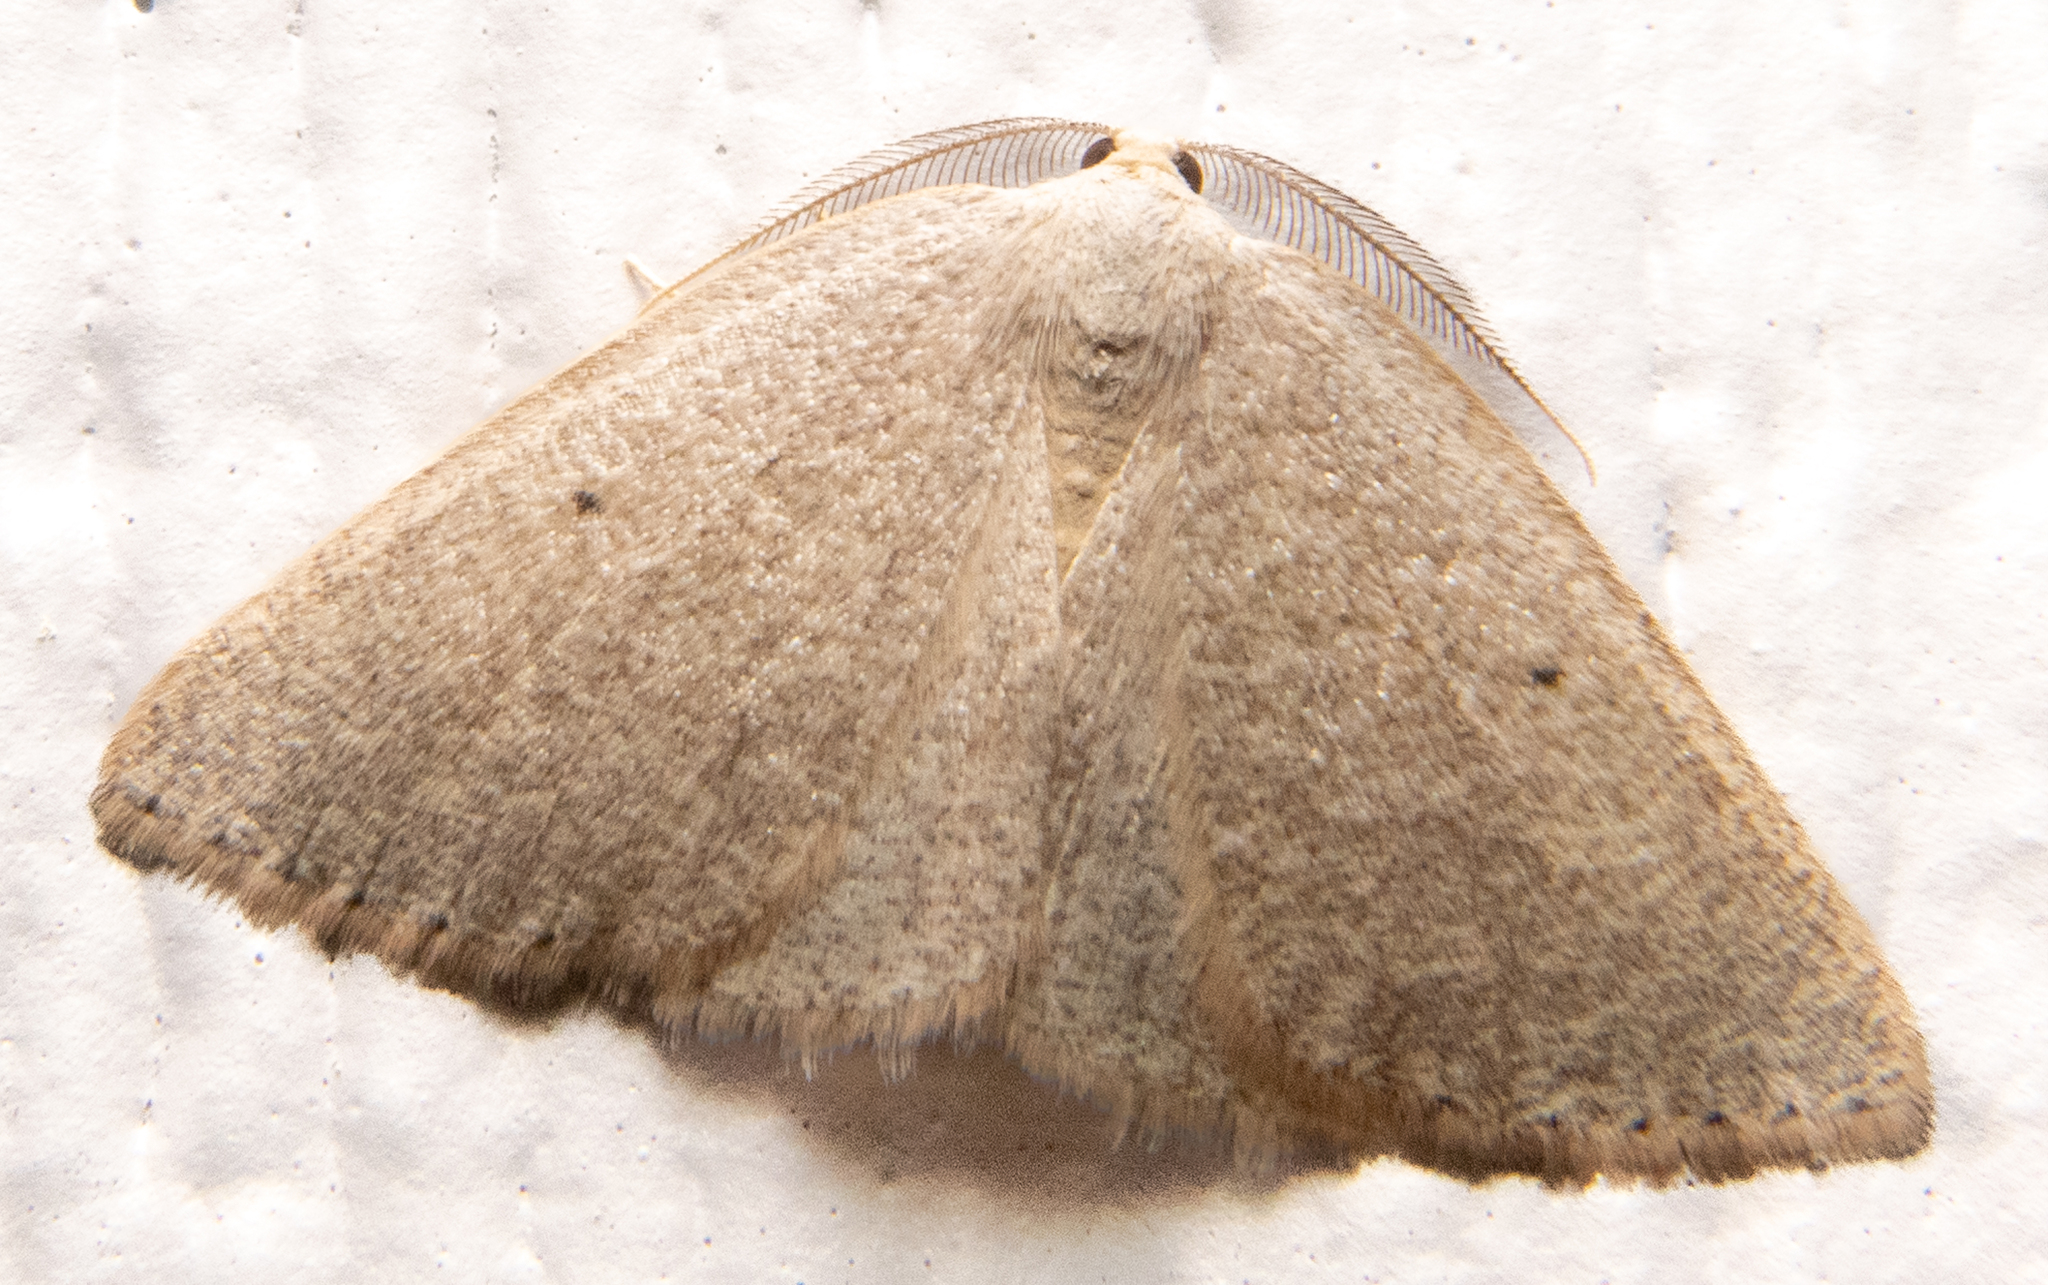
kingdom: Animalia
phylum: Arthropoda
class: Insecta
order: Lepidoptera
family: Geometridae
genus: Eudrepanulatrix
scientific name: Eudrepanulatrix rectifascia
